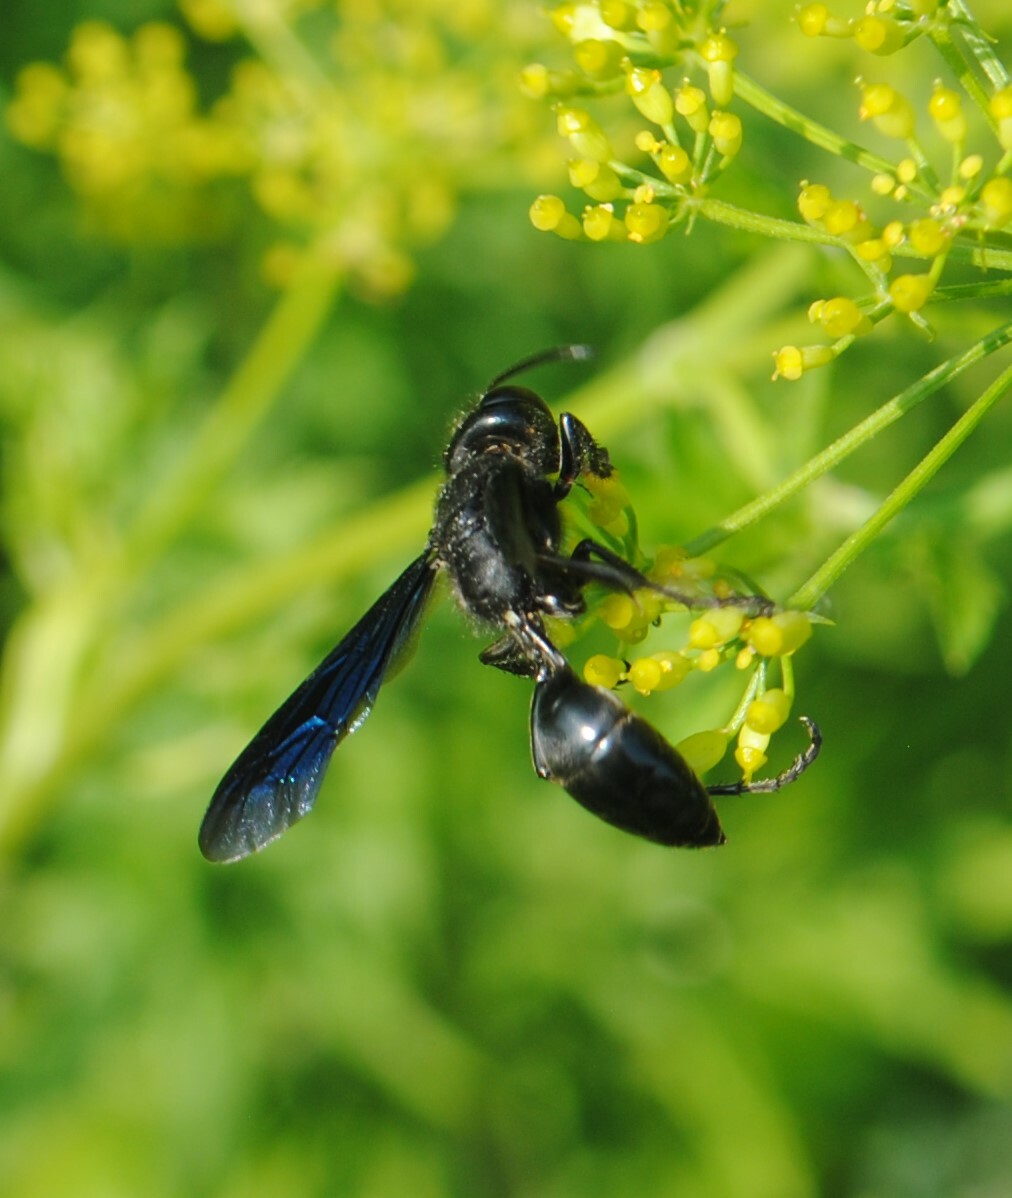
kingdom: Animalia
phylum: Arthropoda
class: Insecta
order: Hymenoptera
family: Sphecidae
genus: Isodontia
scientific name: Isodontia philadelphica
